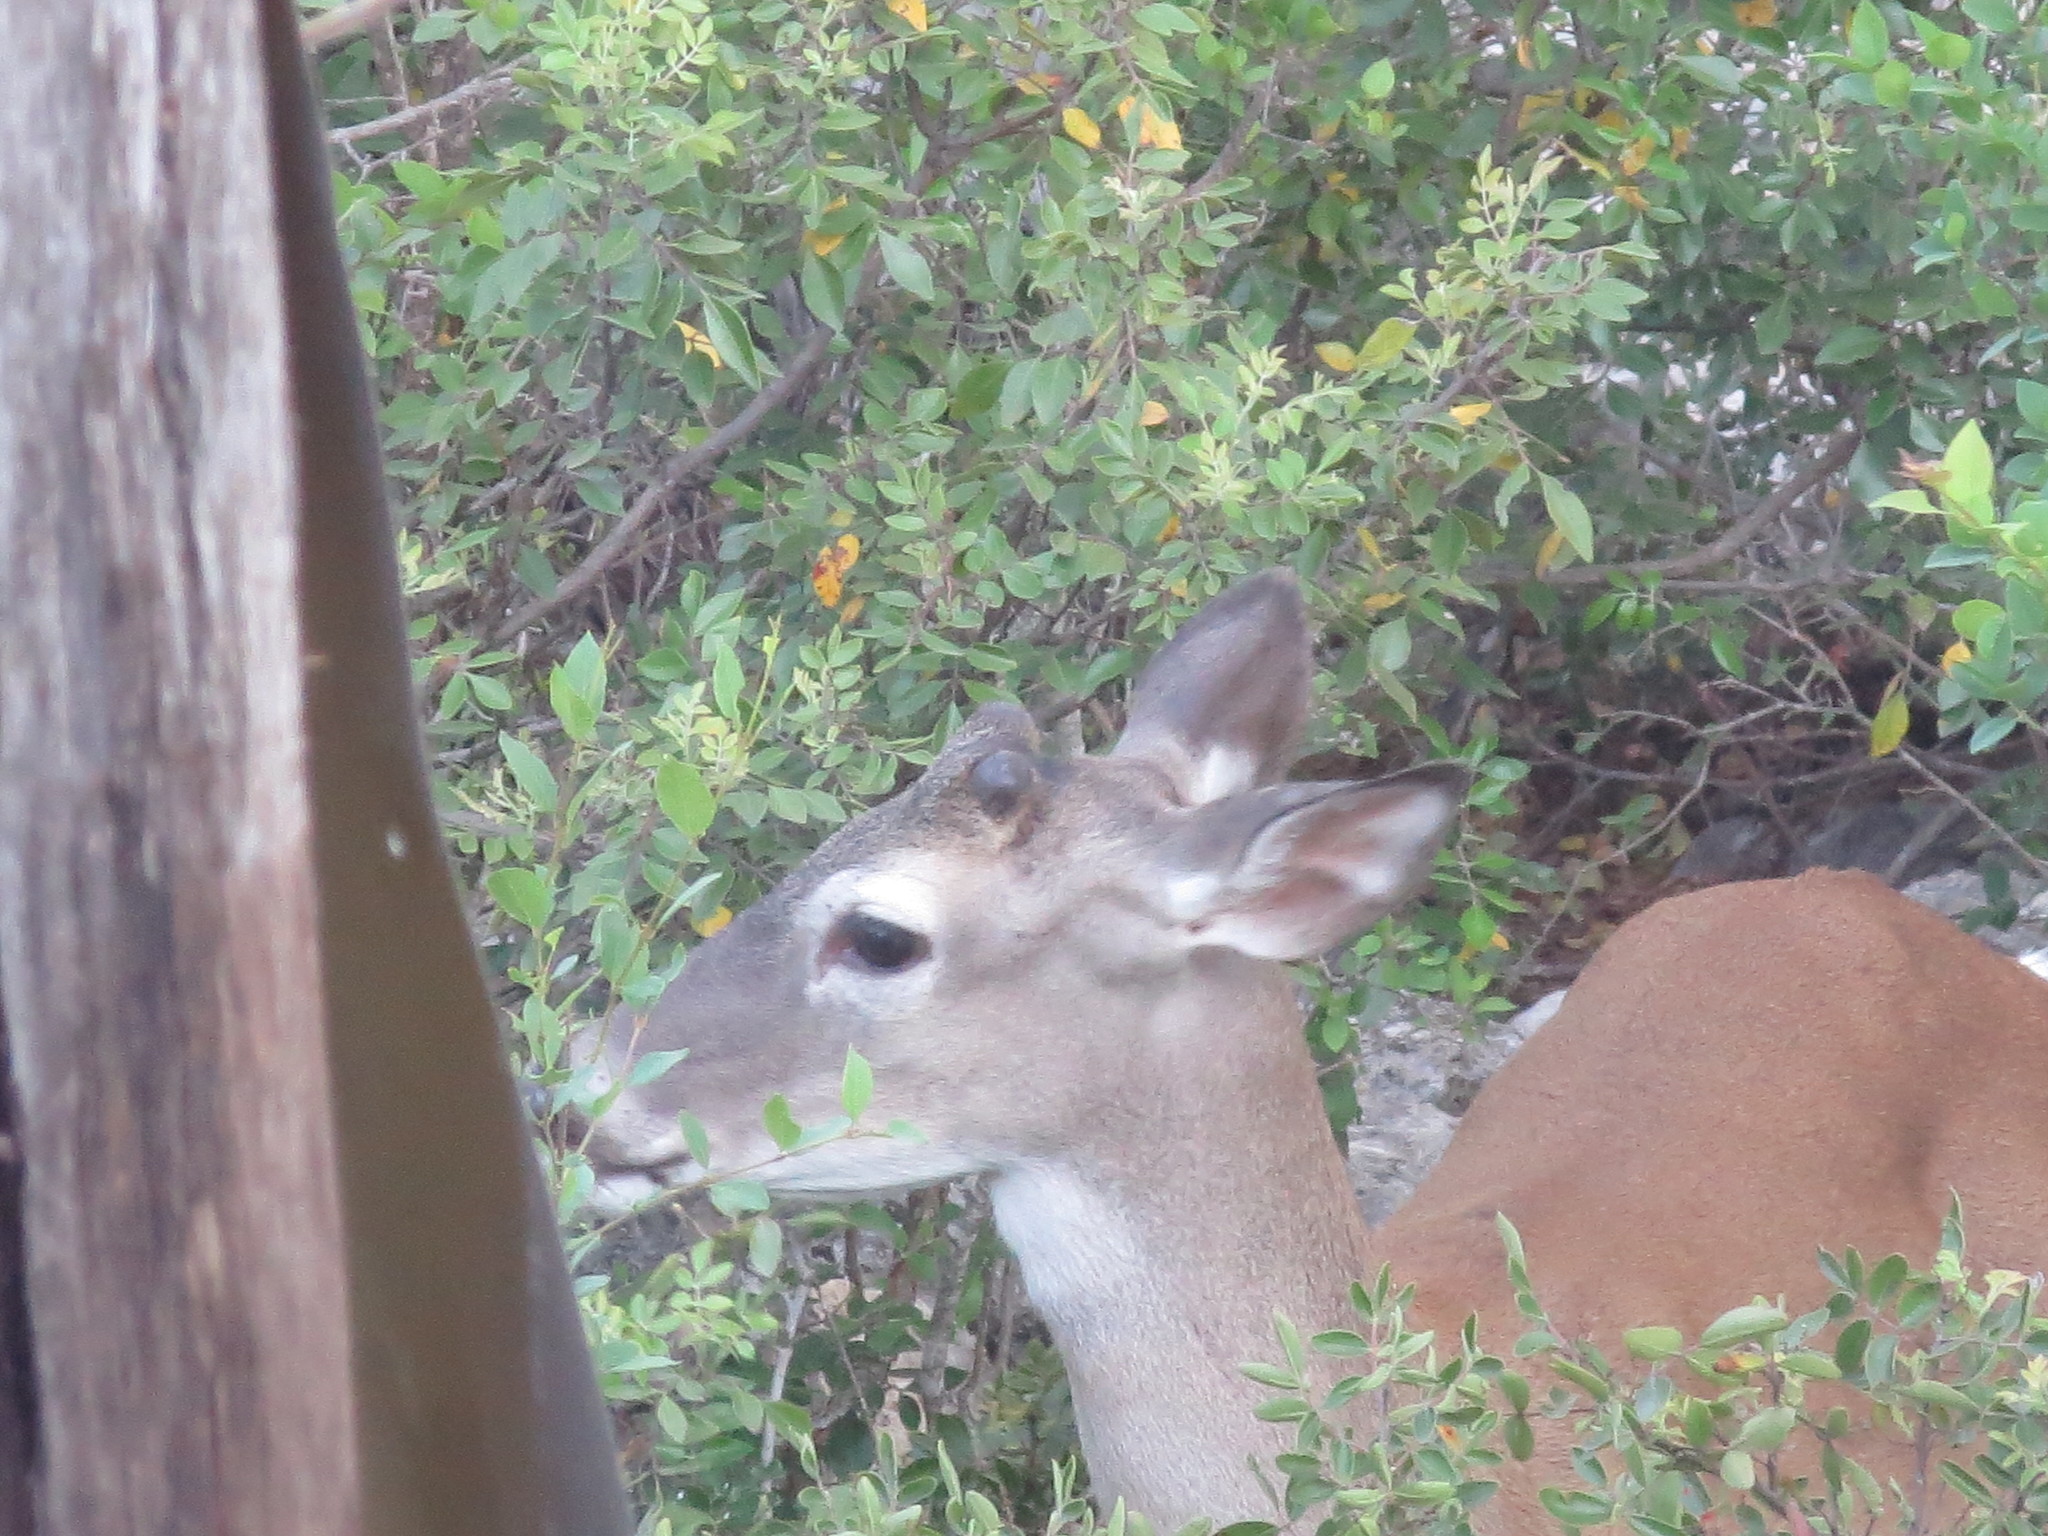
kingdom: Animalia
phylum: Chordata
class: Mammalia
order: Artiodactyla
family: Cervidae
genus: Odocoileus
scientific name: Odocoileus virginianus
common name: White-tailed deer
